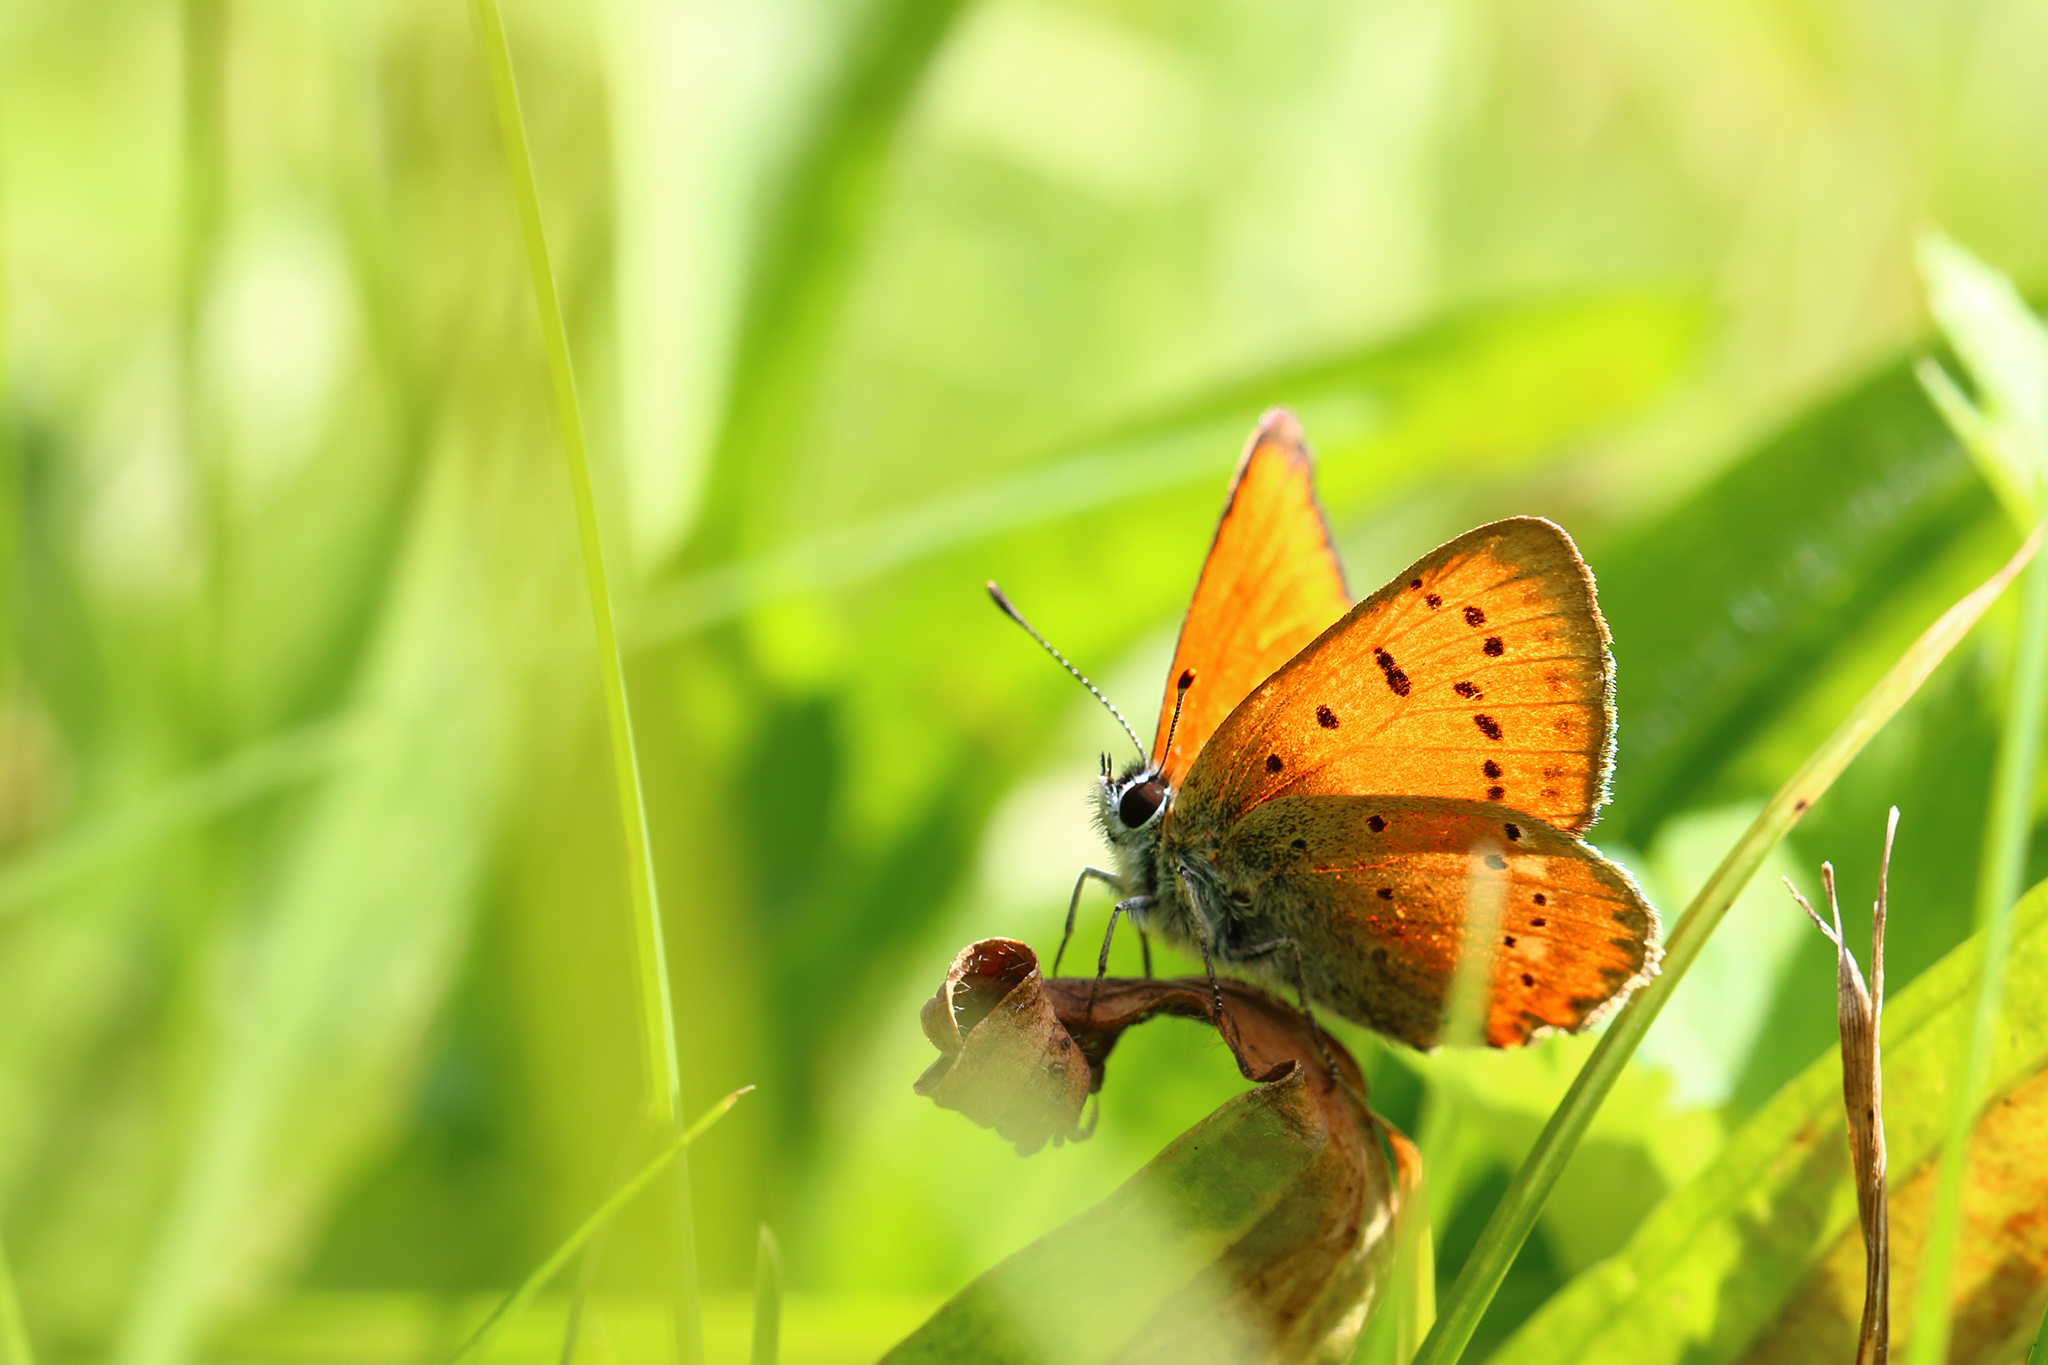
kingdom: Animalia
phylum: Arthropoda
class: Insecta
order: Lepidoptera
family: Lycaenidae
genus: Lycaena
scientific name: Lycaena virgaureae
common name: Scarce copper
